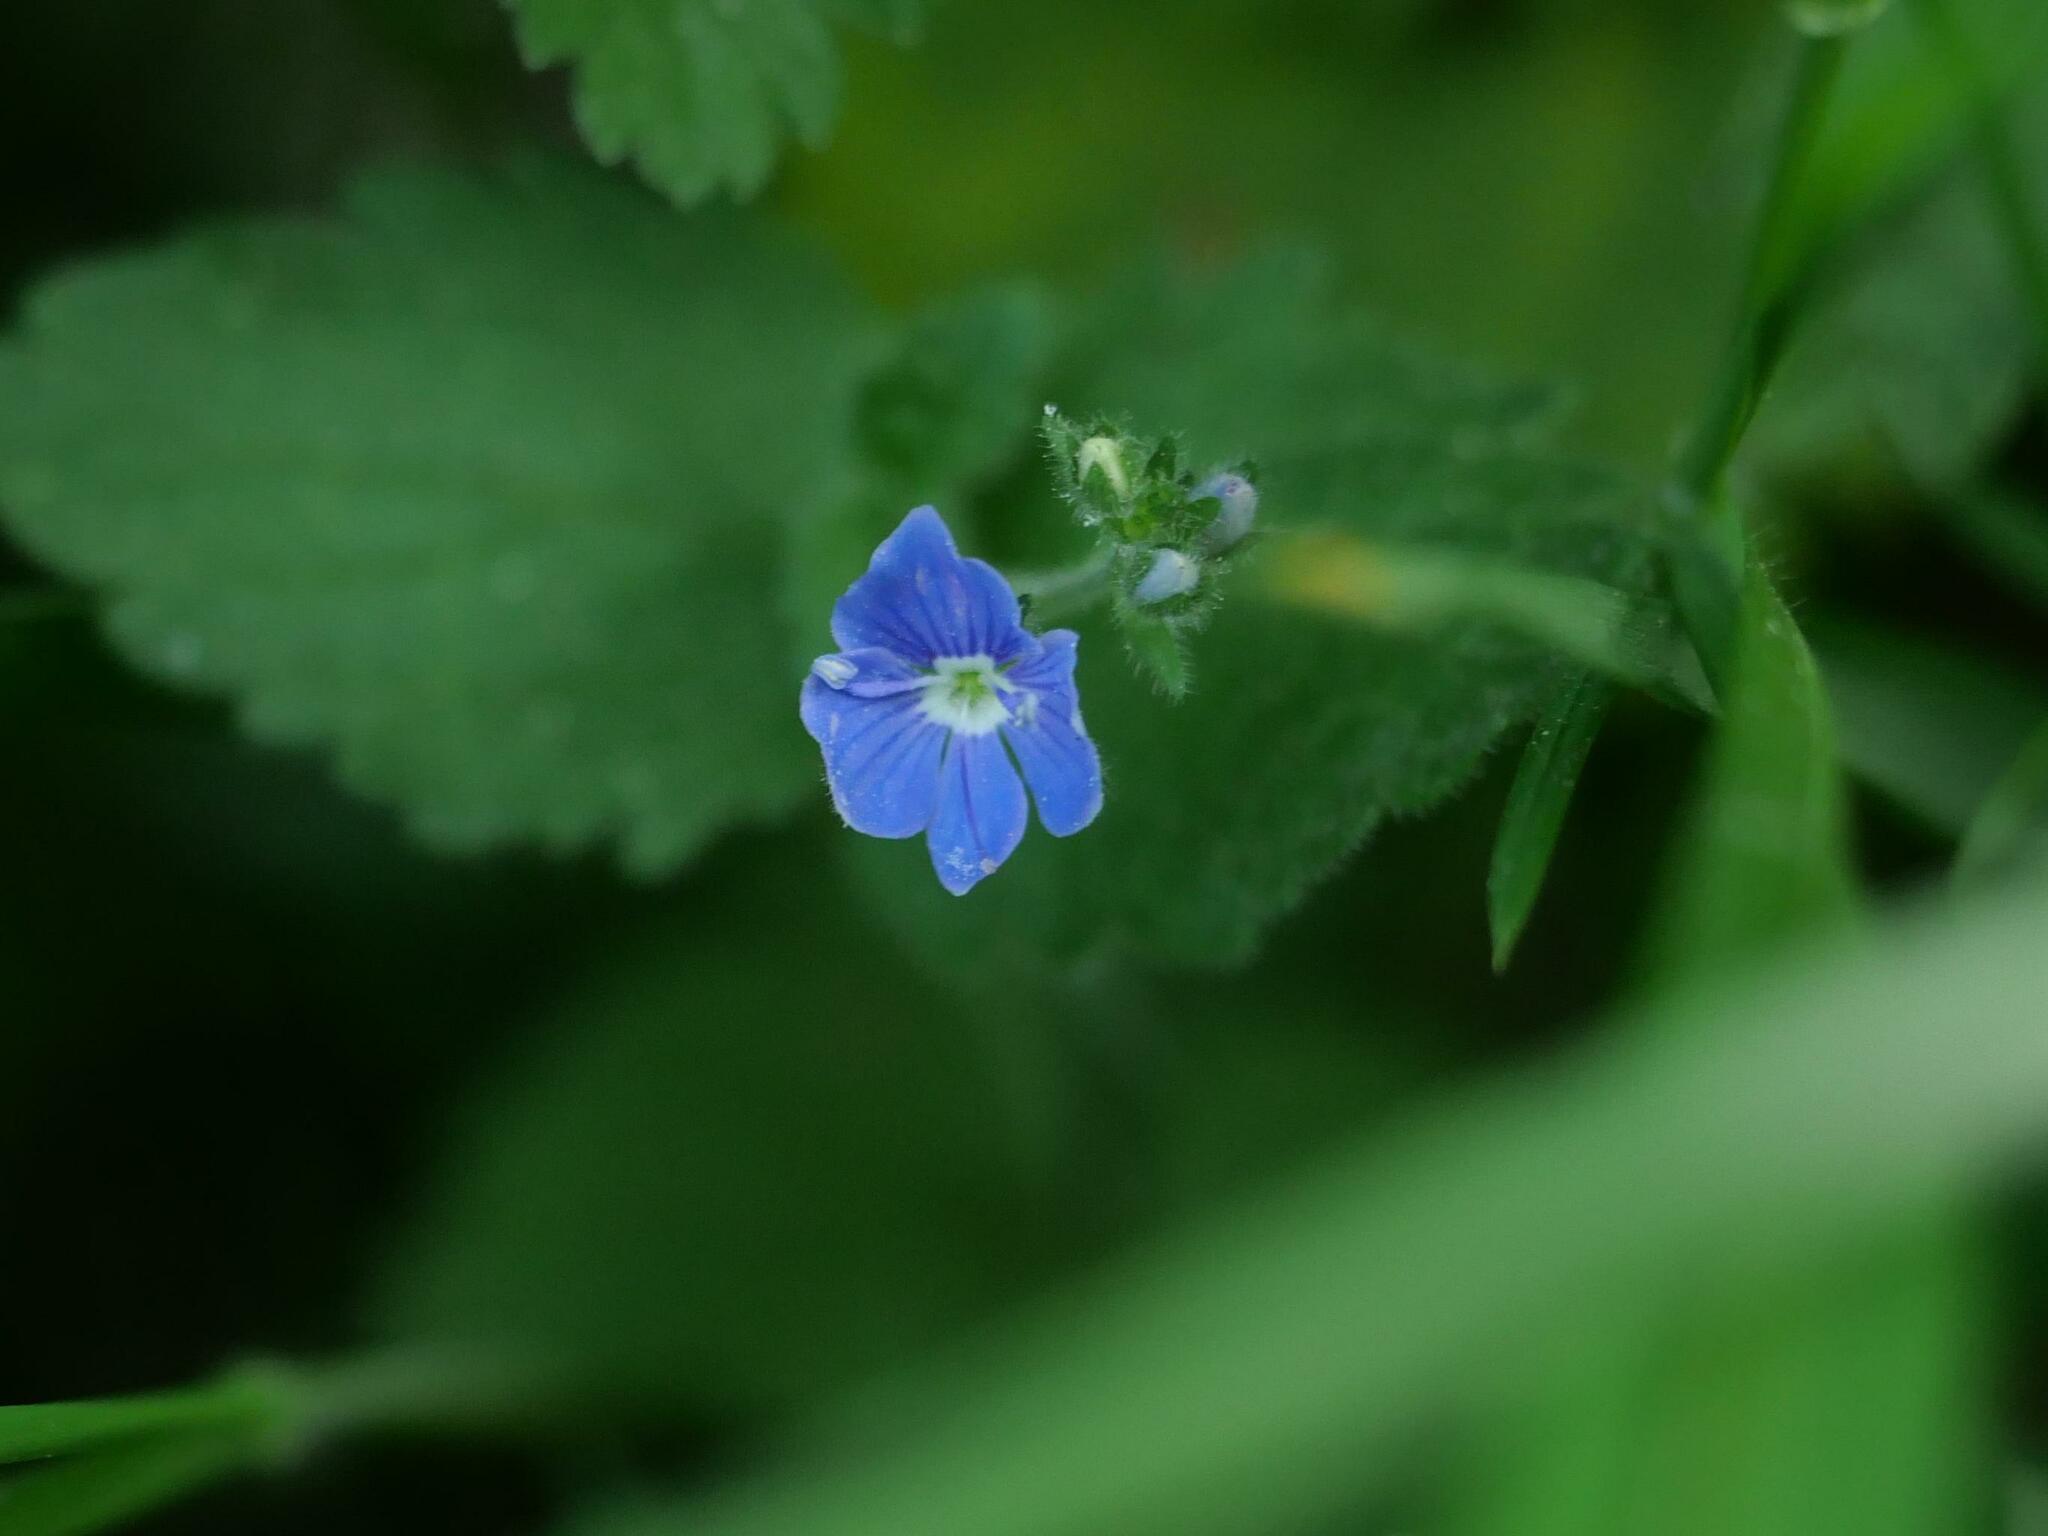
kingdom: Plantae
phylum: Tracheophyta
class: Magnoliopsida
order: Lamiales
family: Plantaginaceae
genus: Veronica
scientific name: Veronica chamaedrys
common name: Germander speedwell
